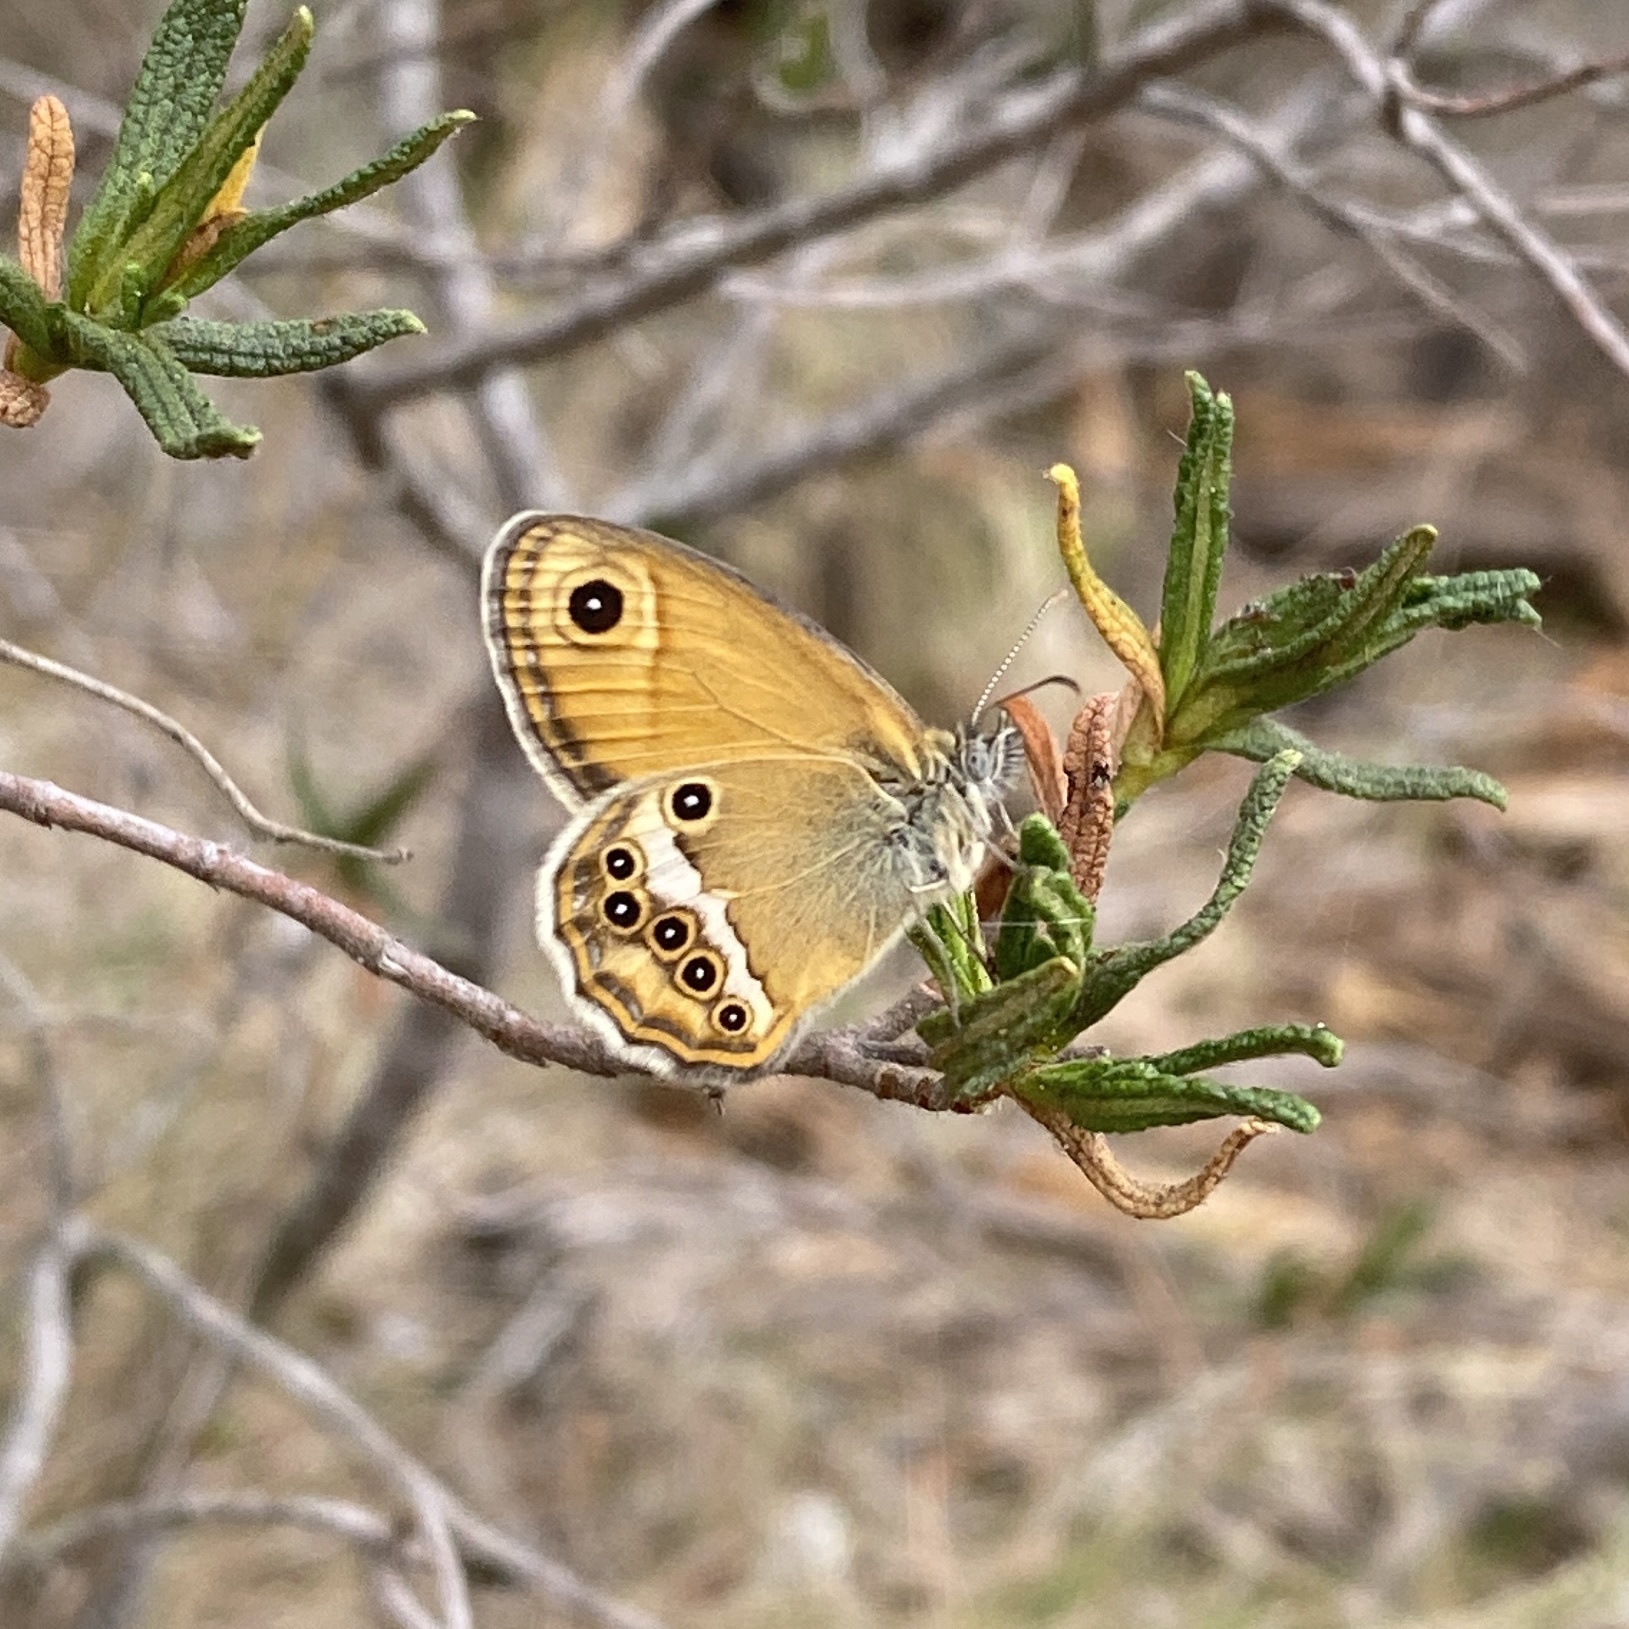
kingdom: Animalia
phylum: Arthropoda
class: Insecta
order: Lepidoptera
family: Nymphalidae
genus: Coenonympha
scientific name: Coenonympha dorus
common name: Dusky heath
